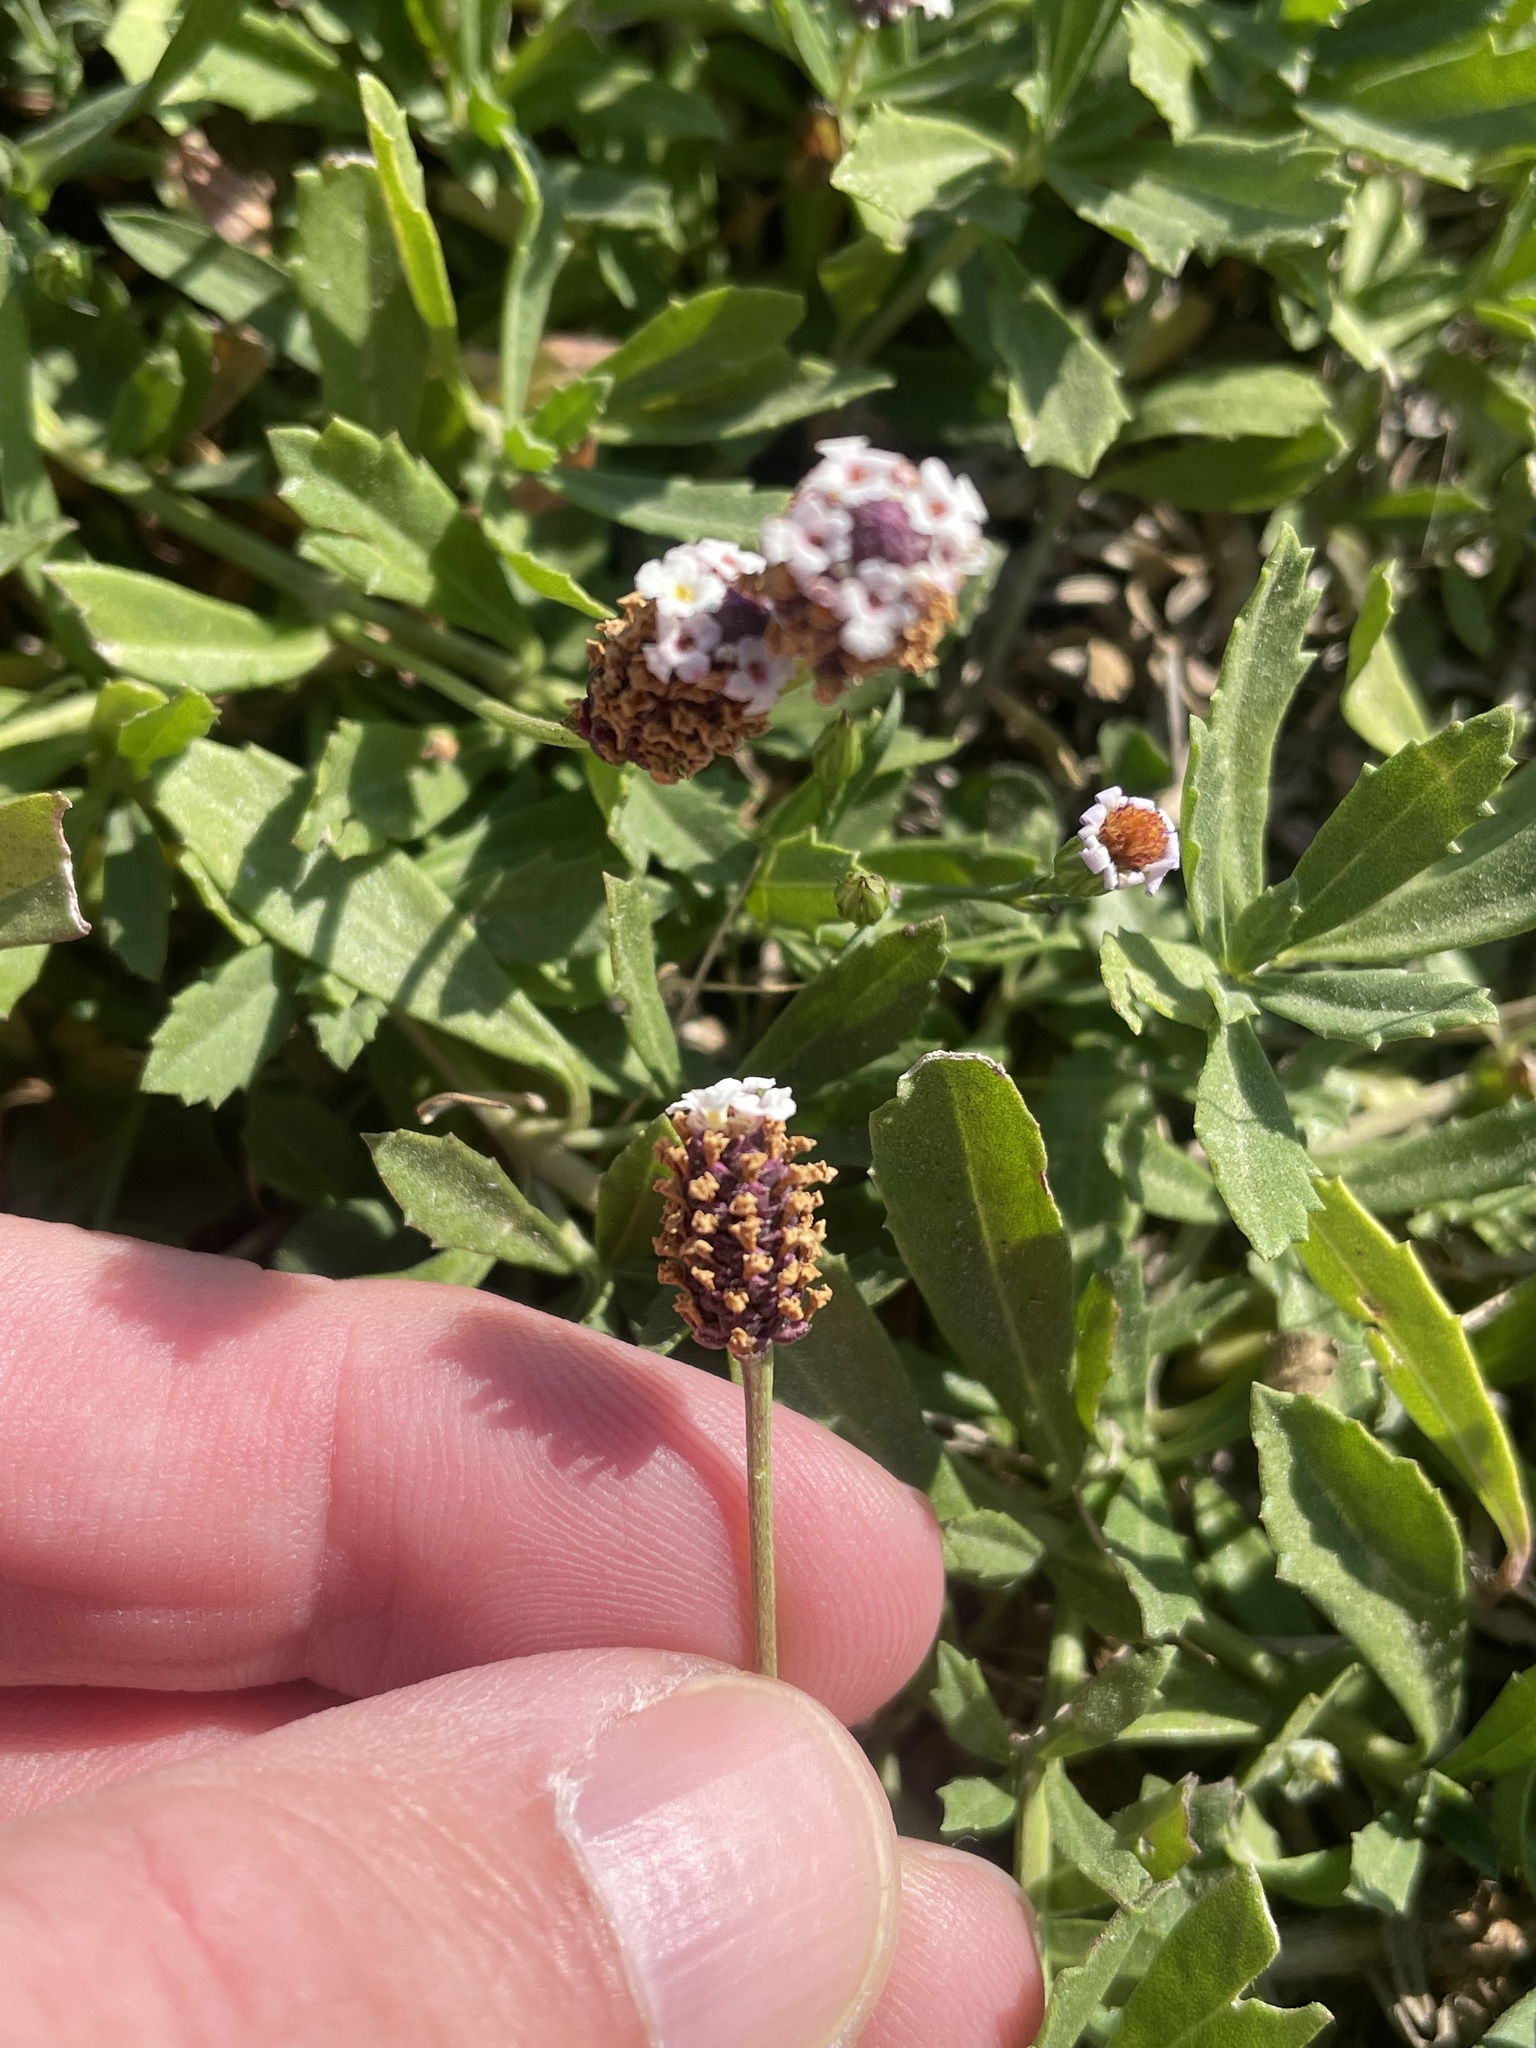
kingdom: Plantae
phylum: Tracheophyta
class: Magnoliopsida
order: Lamiales
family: Verbenaceae
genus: Phyla
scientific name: Phyla nodiflora
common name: Frogfruit
